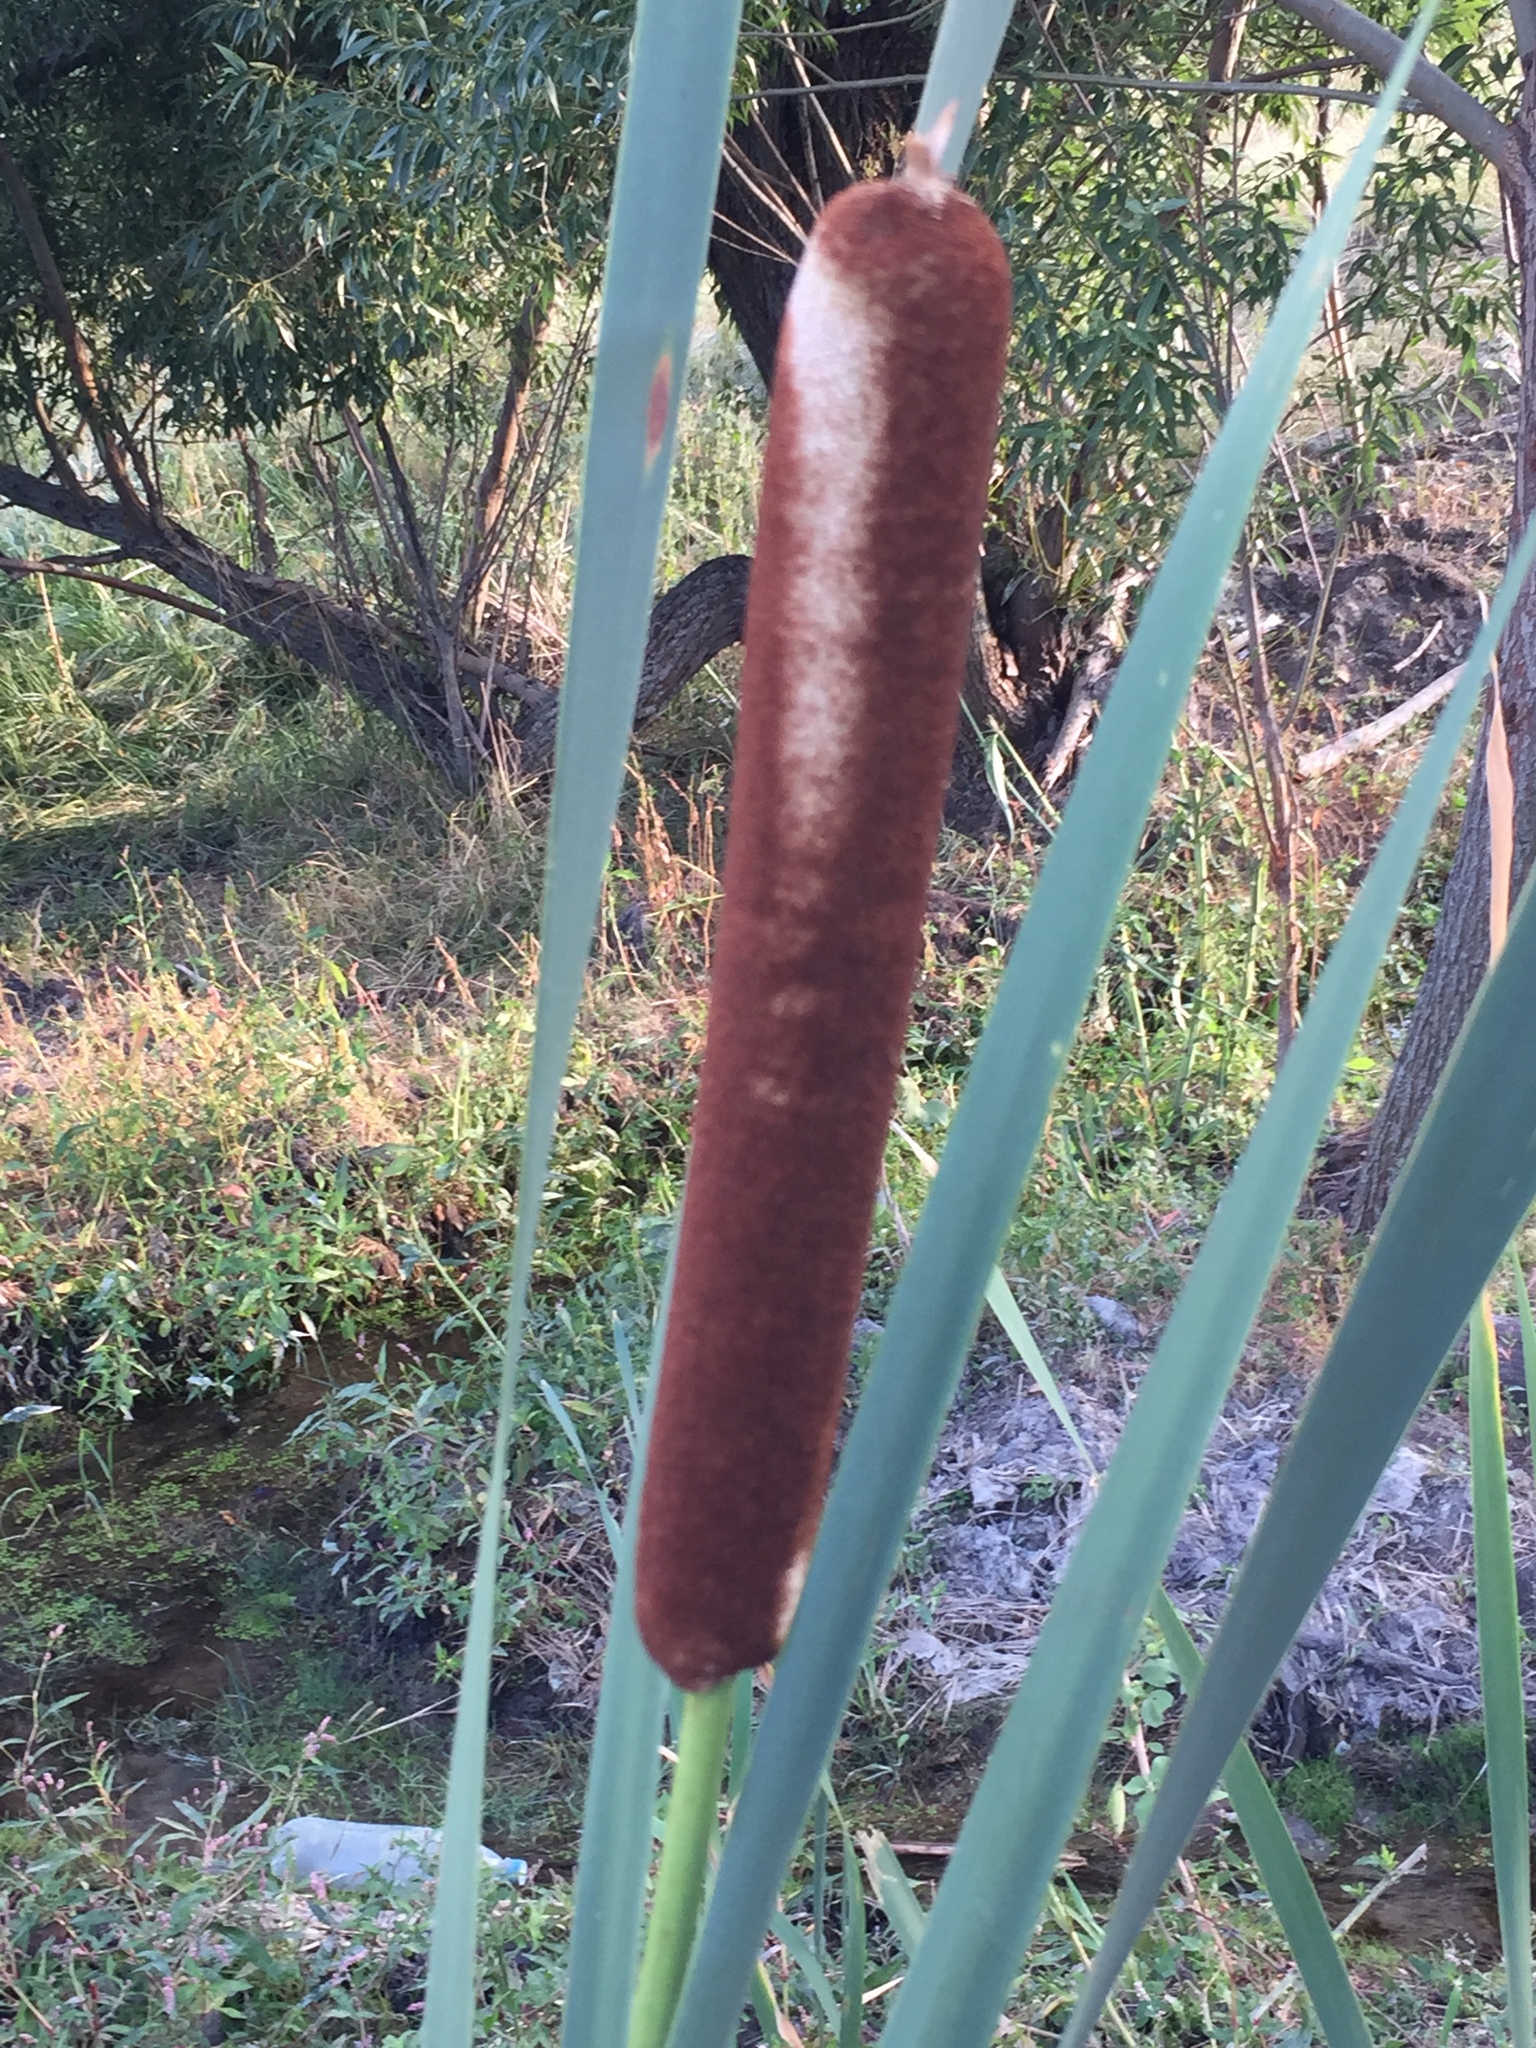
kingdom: Plantae
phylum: Tracheophyta
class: Liliopsida
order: Poales
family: Typhaceae
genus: Typha
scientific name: Typha latifolia
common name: Broadleaf cattail
